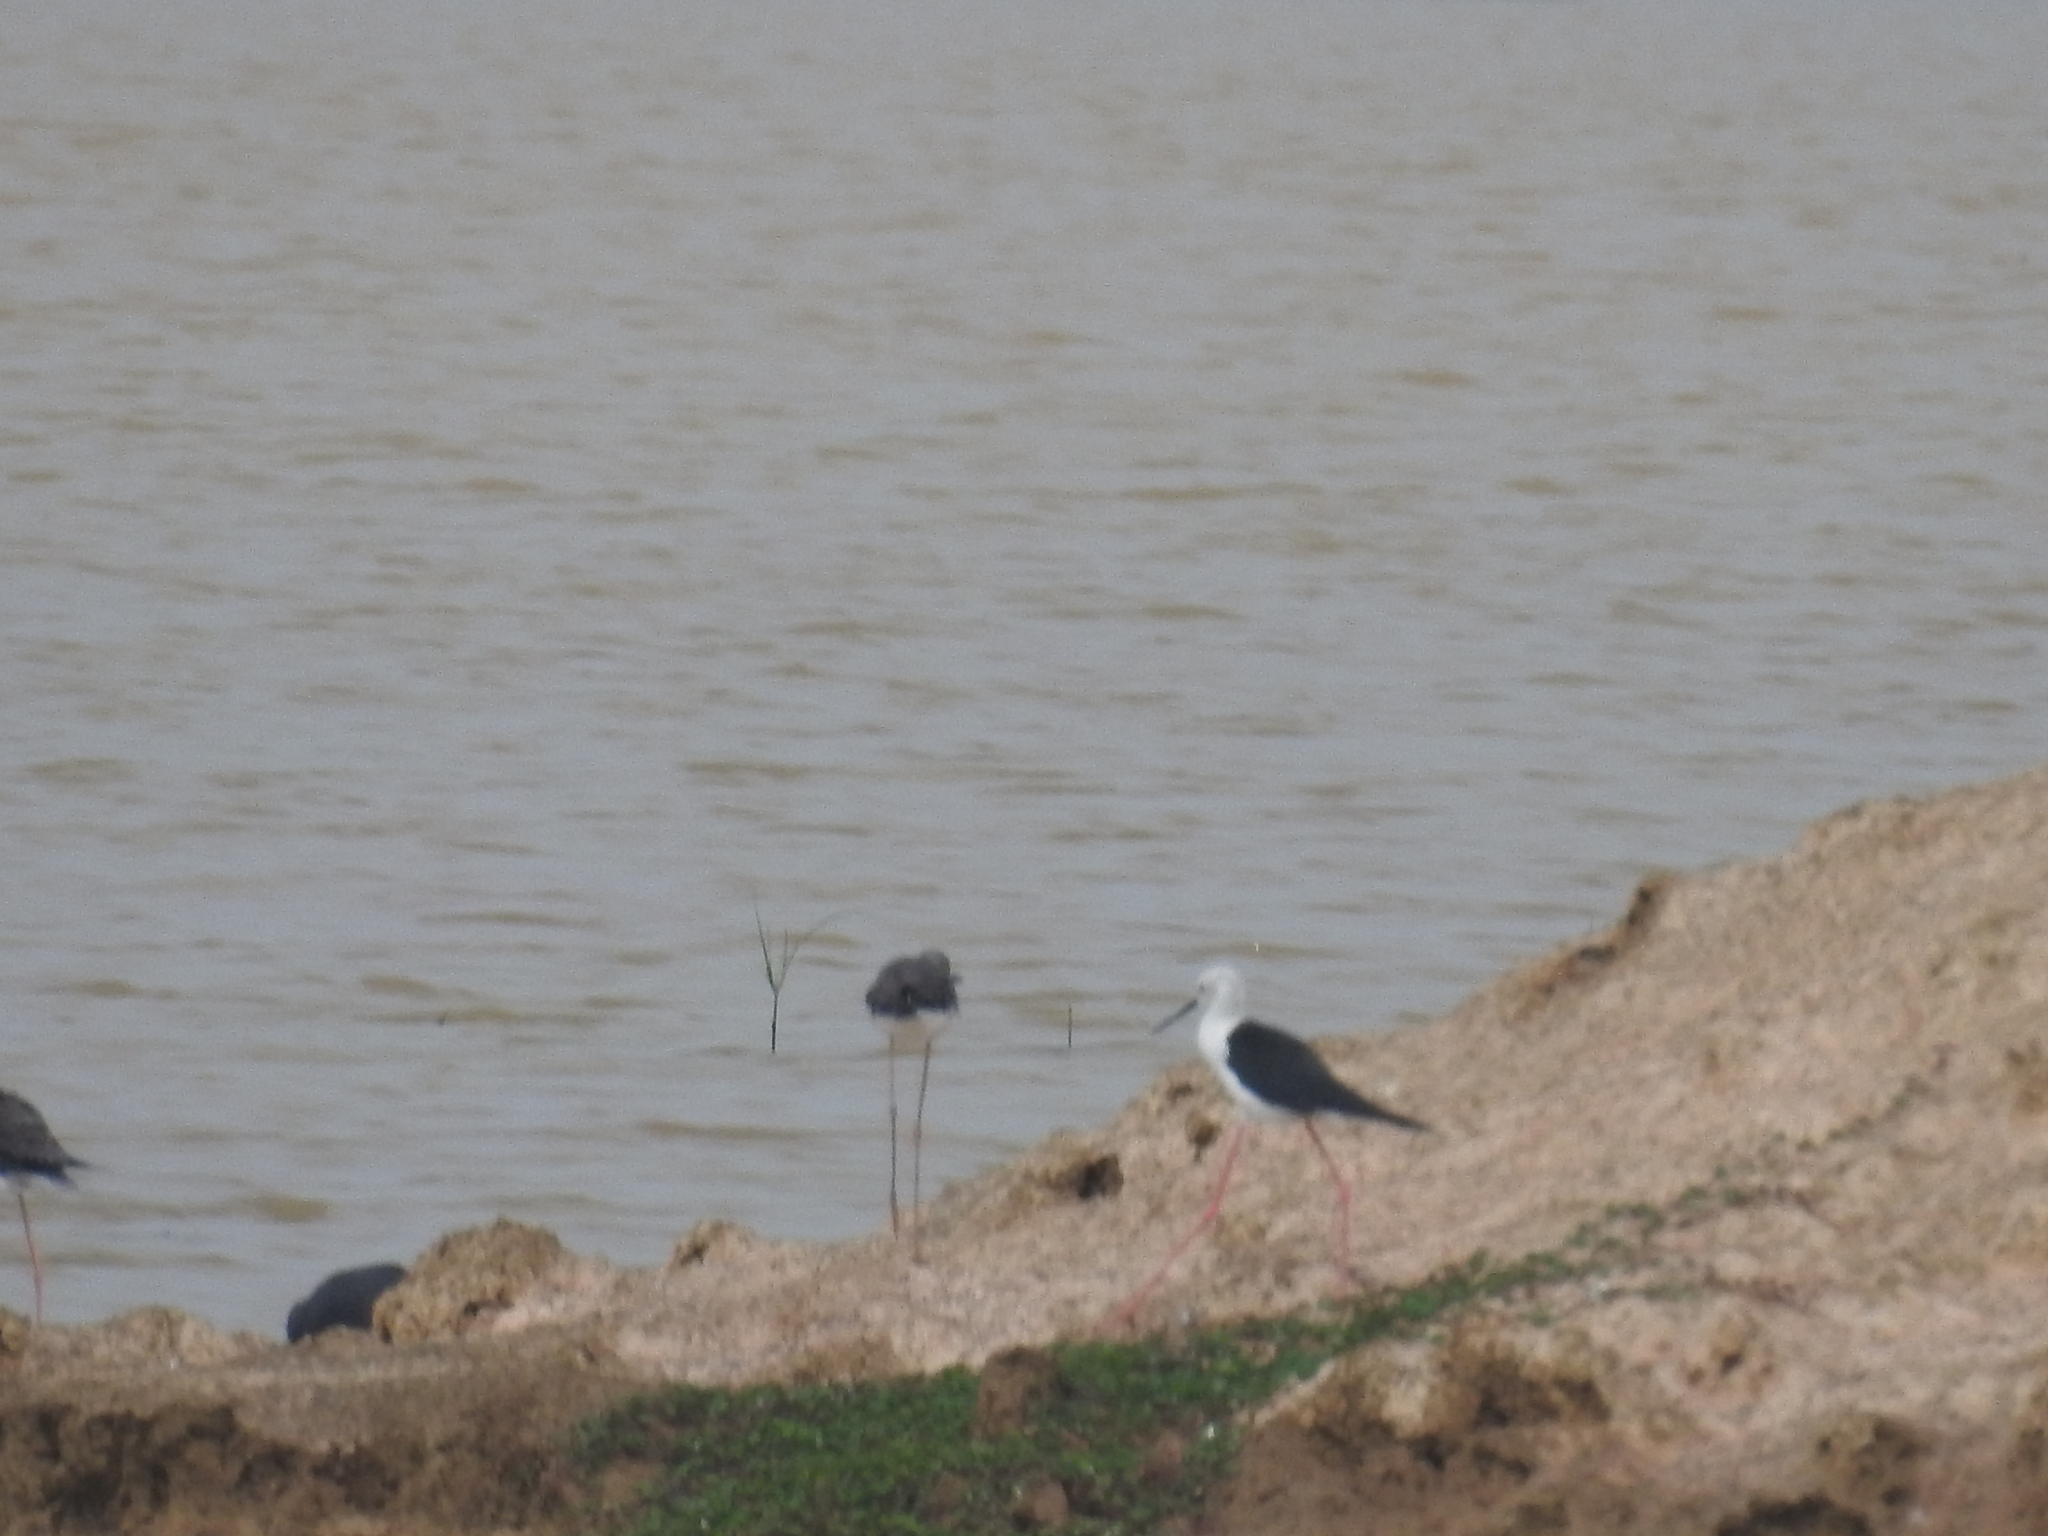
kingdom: Animalia
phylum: Chordata
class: Aves
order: Charadriiformes
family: Recurvirostridae
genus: Himantopus
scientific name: Himantopus himantopus
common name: Black-winged stilt
